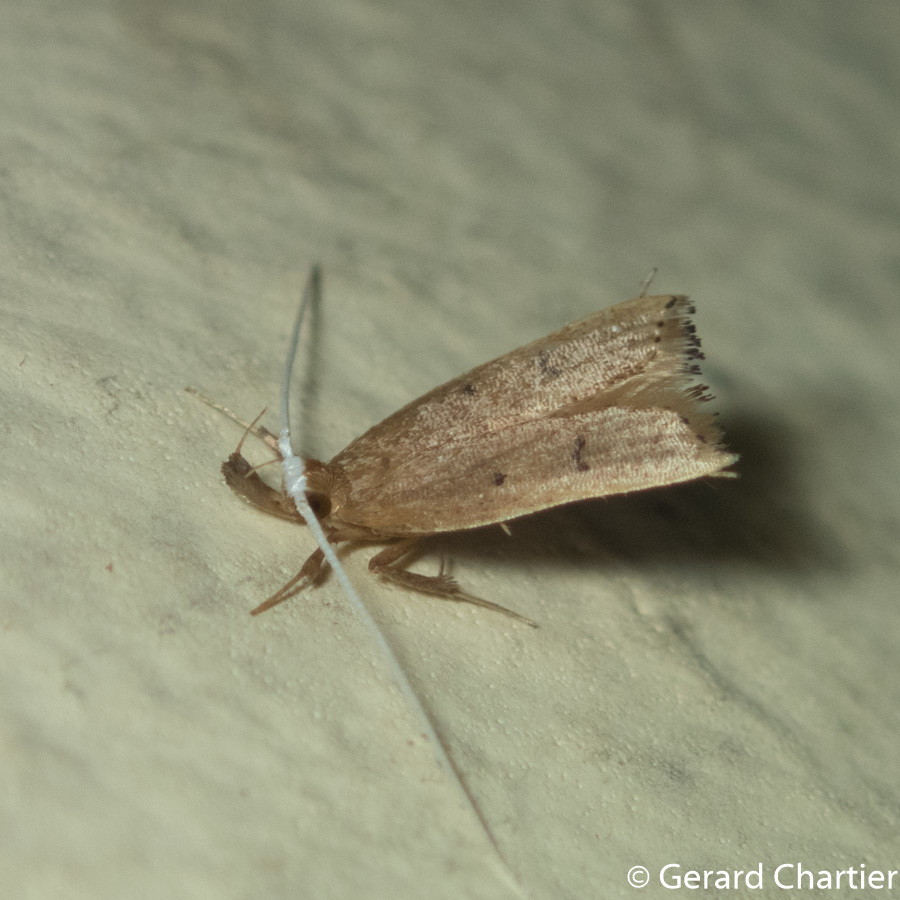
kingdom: Animalia
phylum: Arthropoda
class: Insecta
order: Lepidoptera
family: Lecithoceridae
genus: Lecitholaxa
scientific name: Lecitholaxa thiodora
